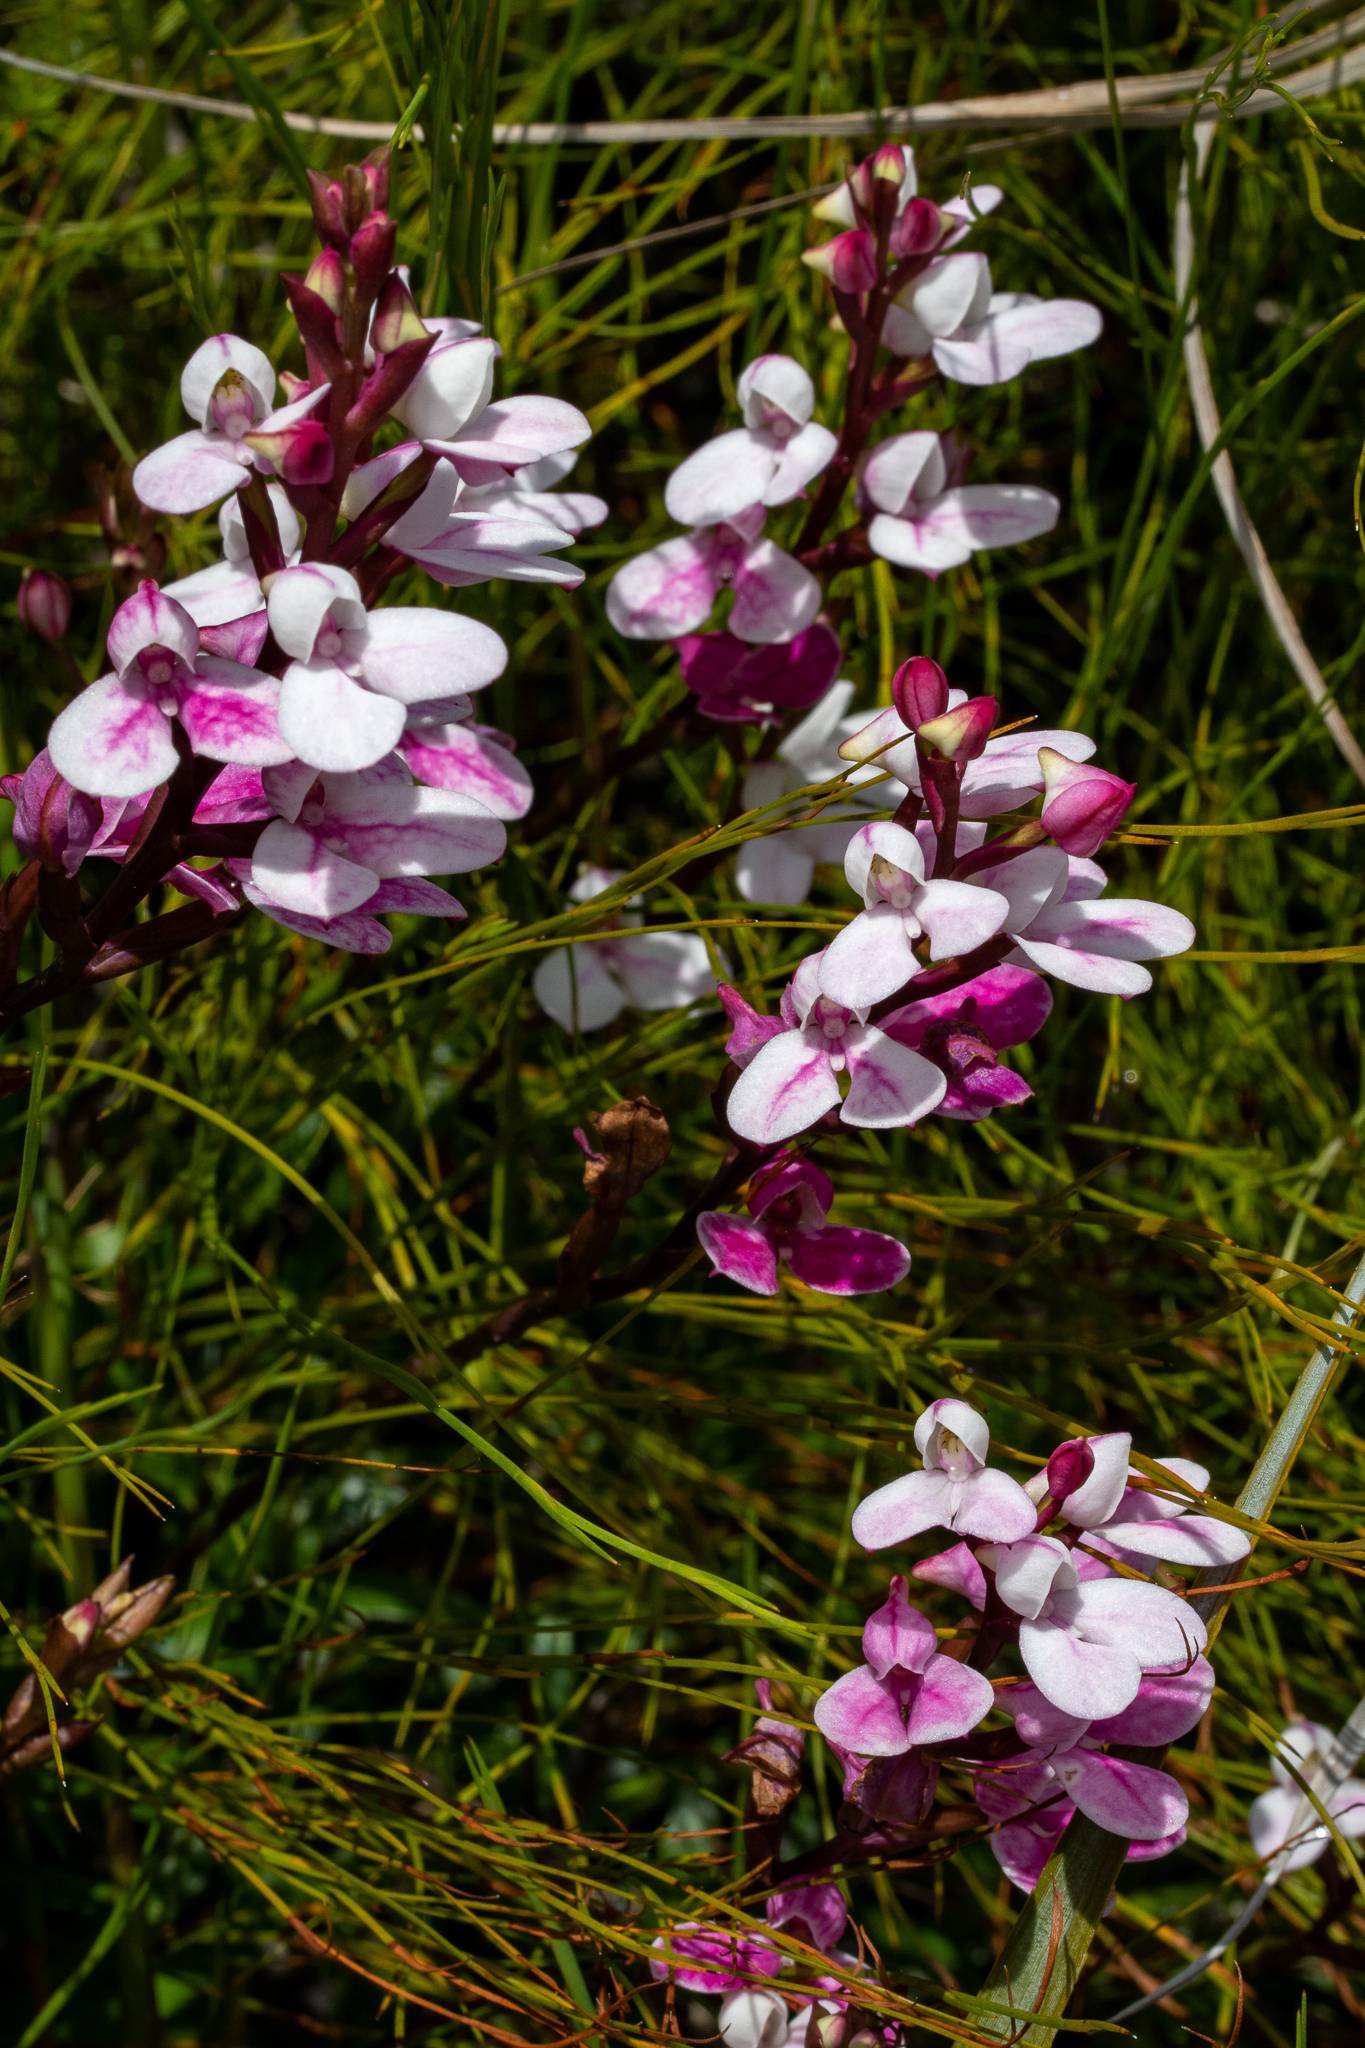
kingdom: Plantae
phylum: Tracheophyta
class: Liliopsida
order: Asparagales
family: Orchidaceae
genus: Disa
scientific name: Disa tripetaloides
